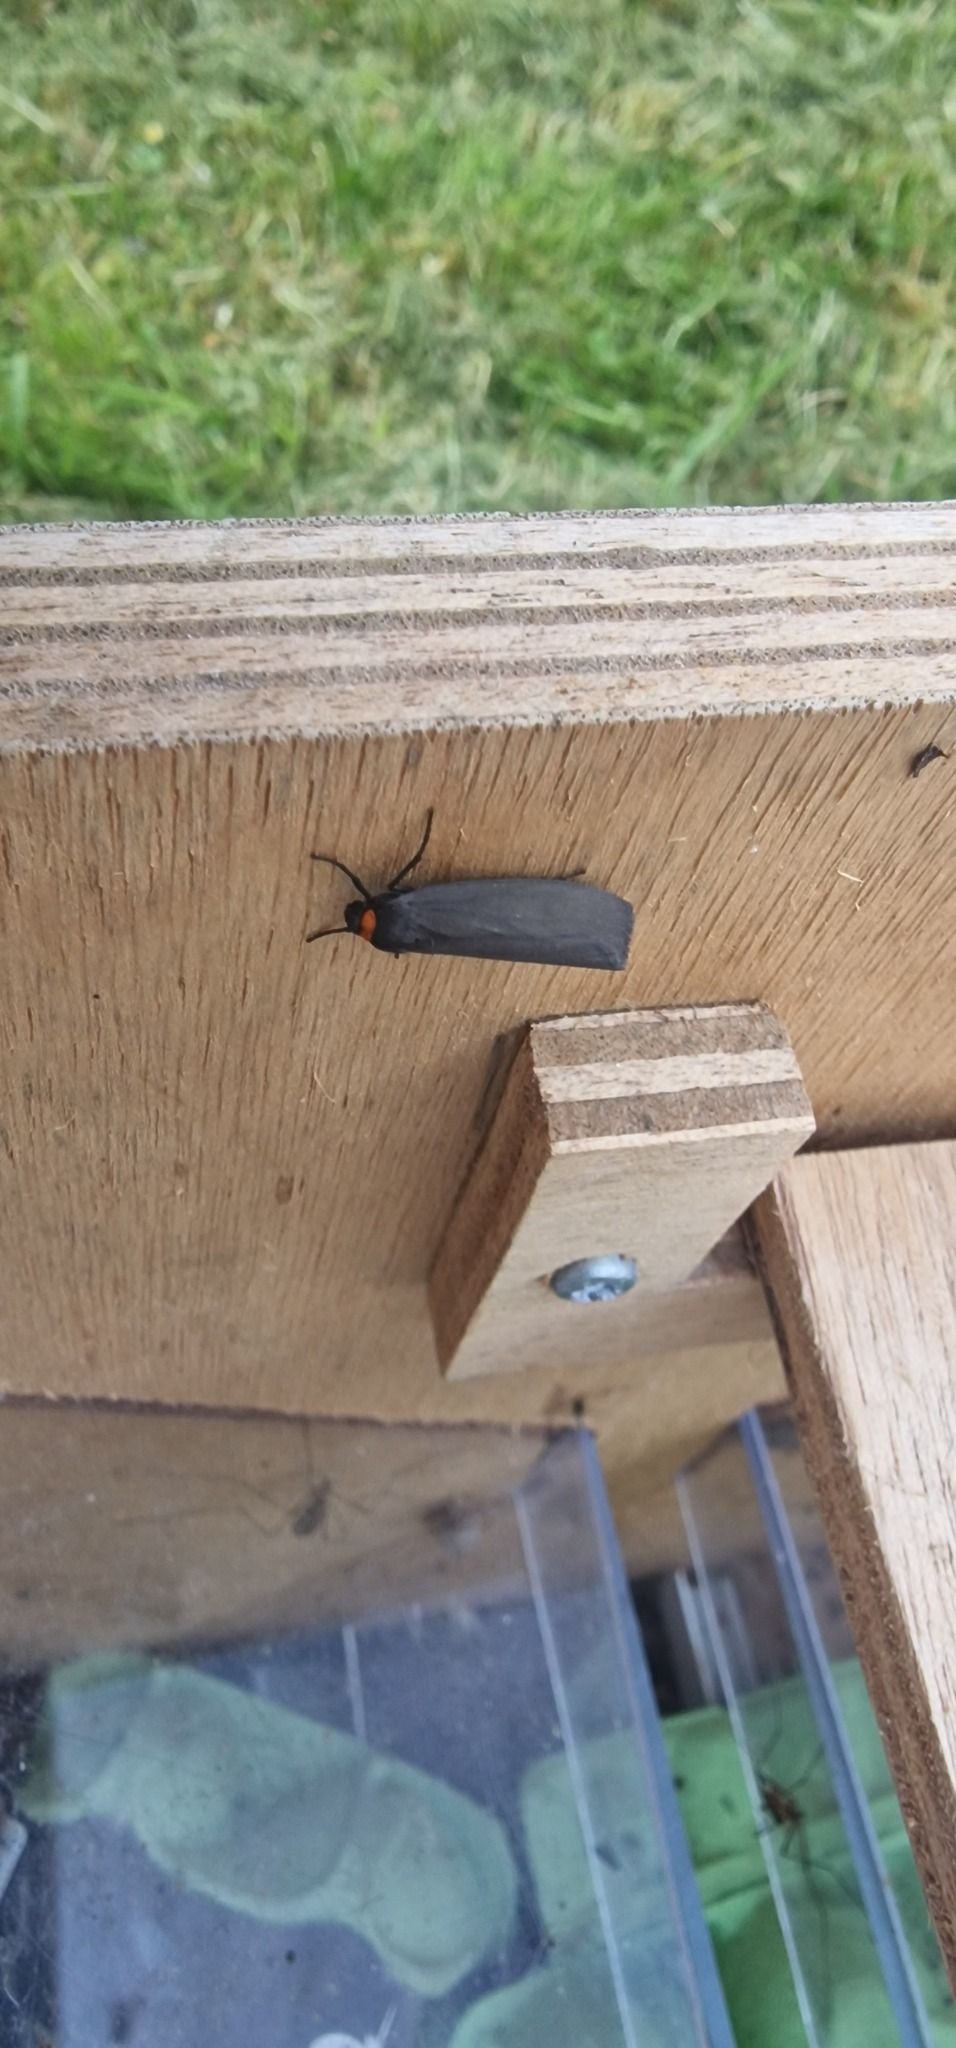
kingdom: Animalia
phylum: Arthropoda
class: Insecta
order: Lepidoptera
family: Erebidae
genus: Atolmis
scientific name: Atolmis rubricollis
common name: Red-necked footman
